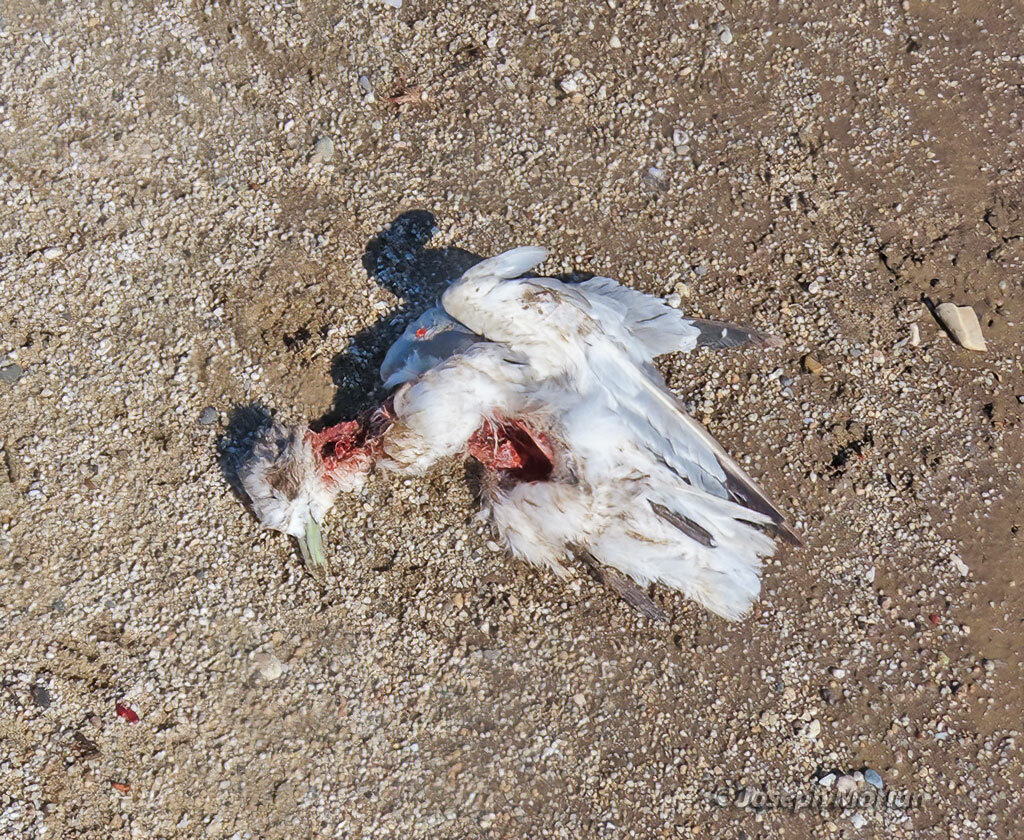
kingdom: Animalia
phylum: Chordata
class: Aves
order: Charadriiformes
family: Laridae
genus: Rissa
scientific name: Rissa tridactyla
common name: Black-legged kittiwake
